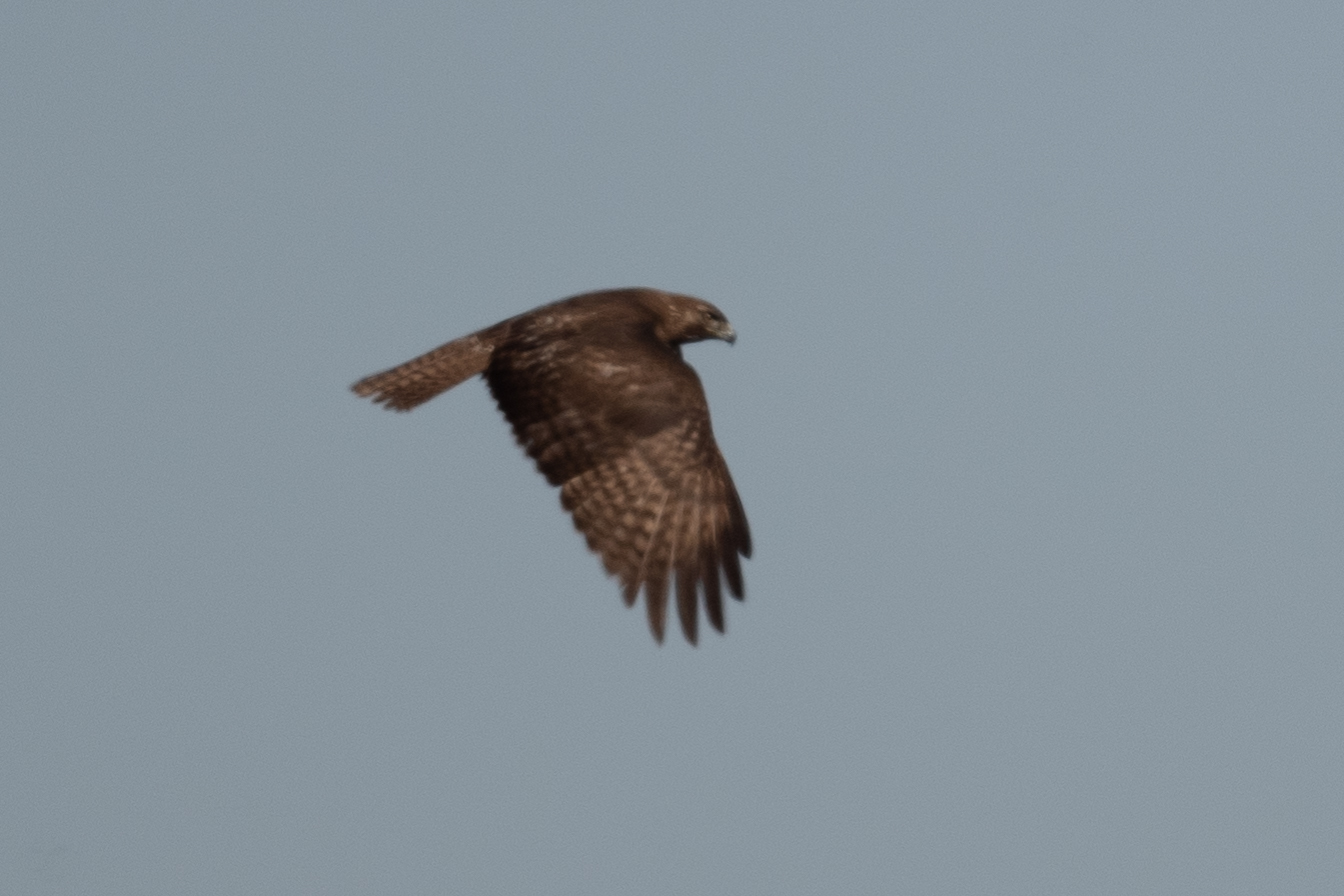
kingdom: Animalia
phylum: Chordata
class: Aves
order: Accipitriformes
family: Accipitridae
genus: Buteo
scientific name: Buteo jamaicensis
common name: Red-tailed hawk
